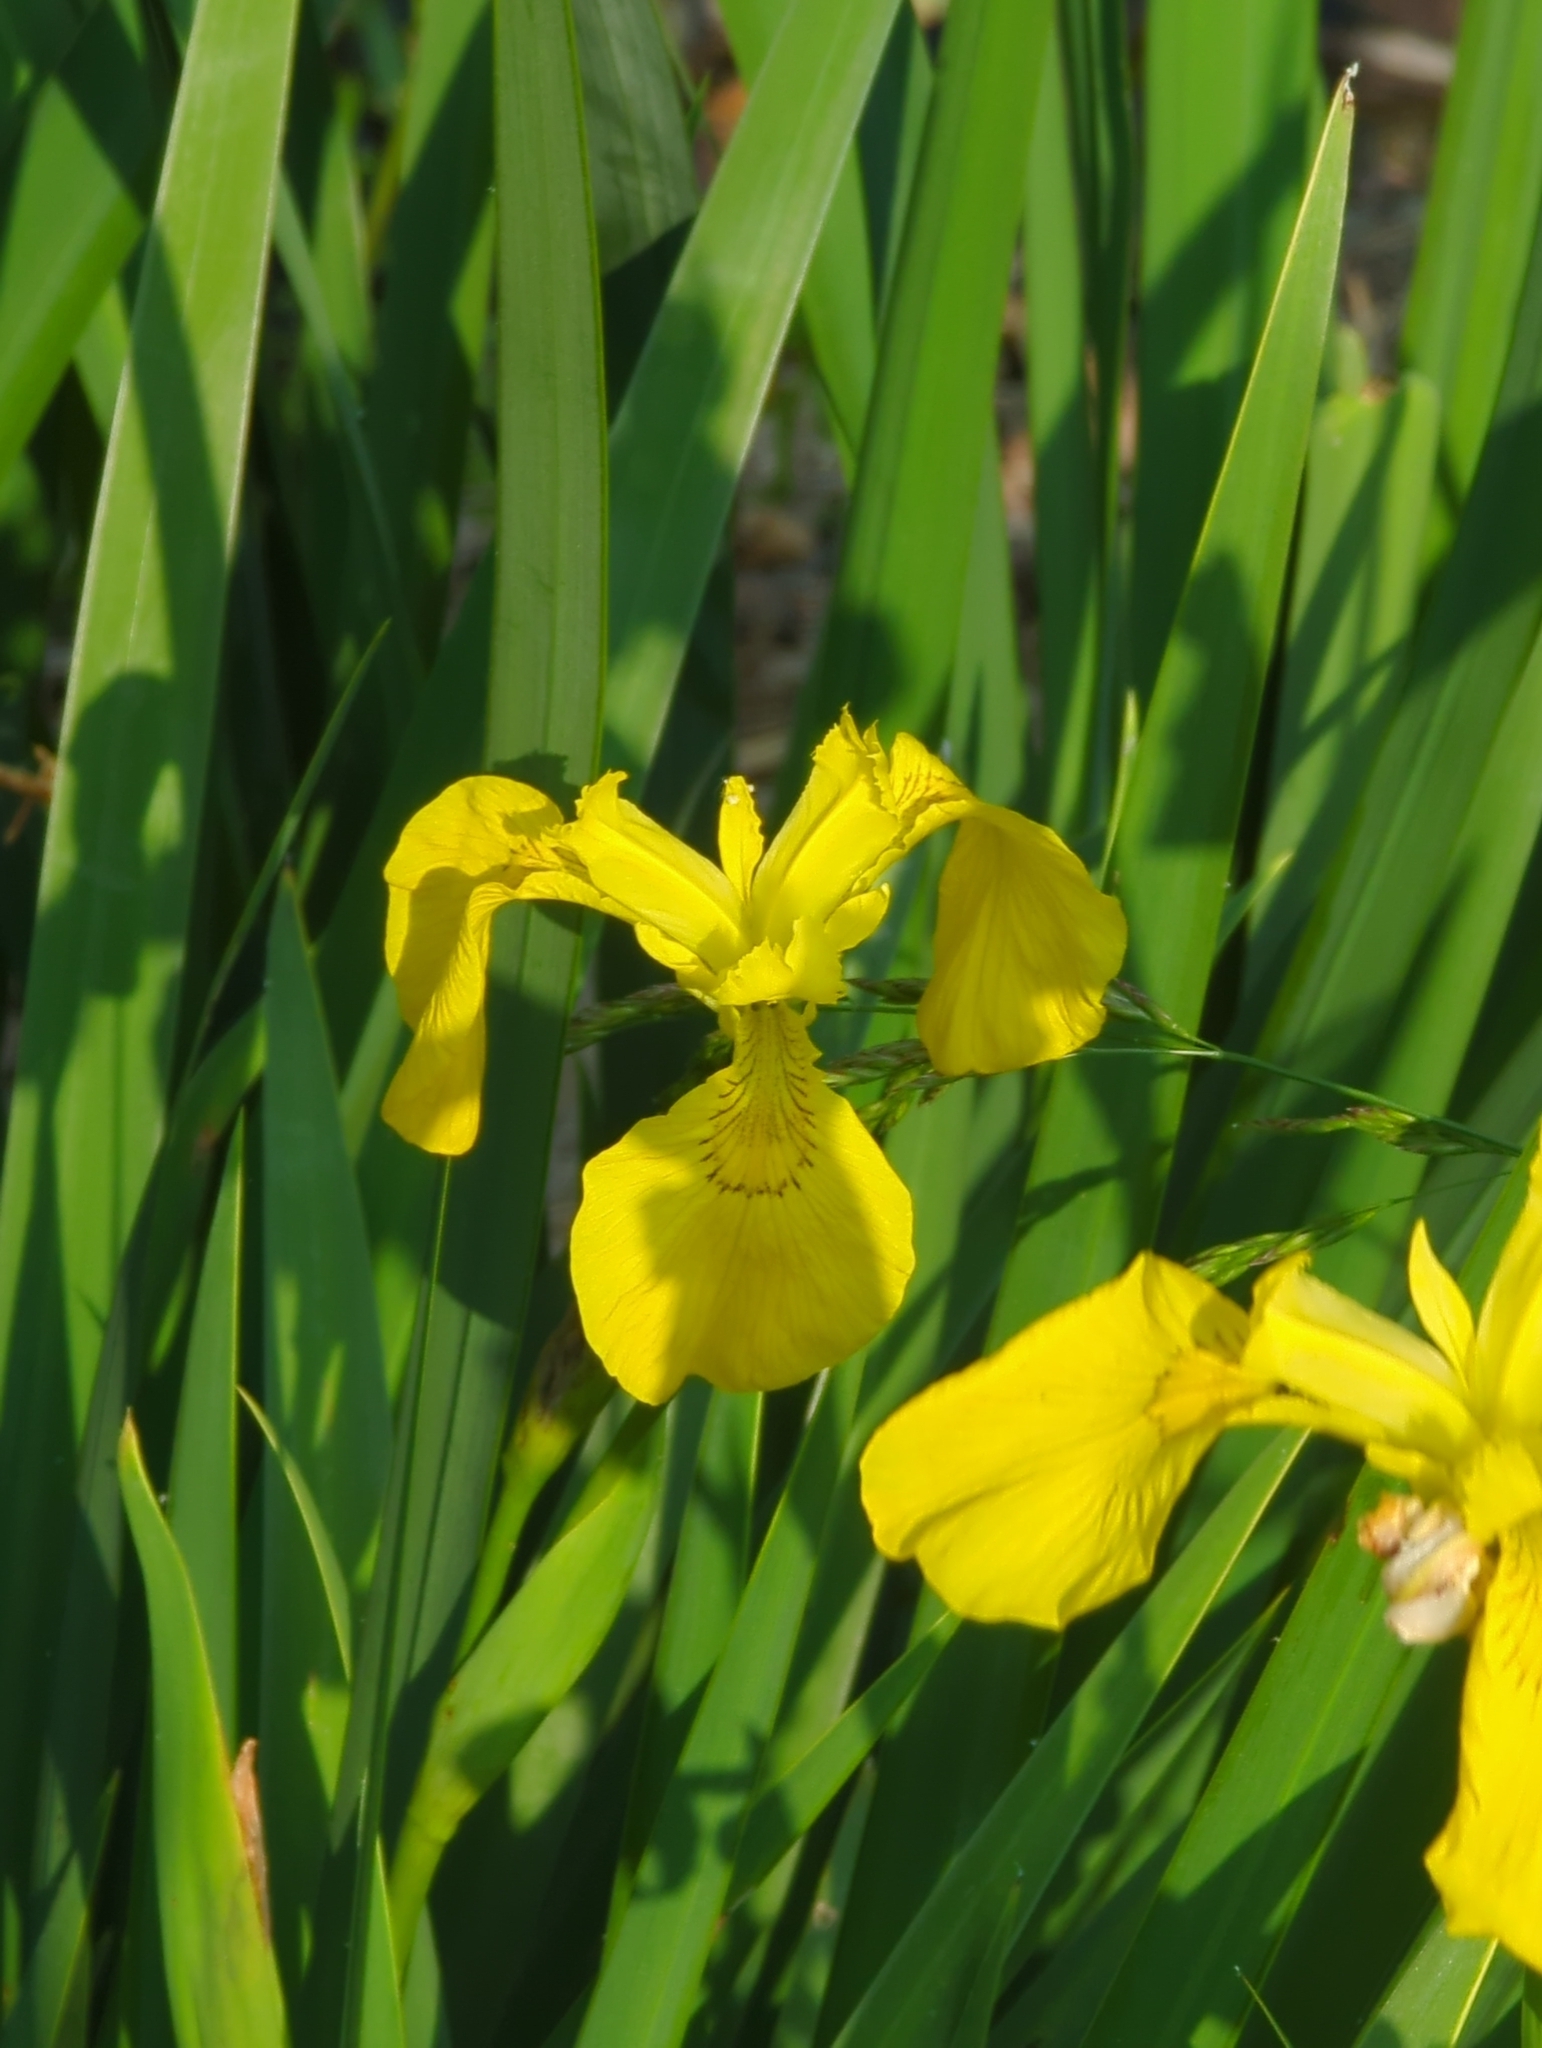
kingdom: Plantae
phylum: Tracheophyta
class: Liliopsida
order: Asparagales
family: Iridaceae
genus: Iris
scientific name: Iris pseudacorus
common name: Yellow flag
